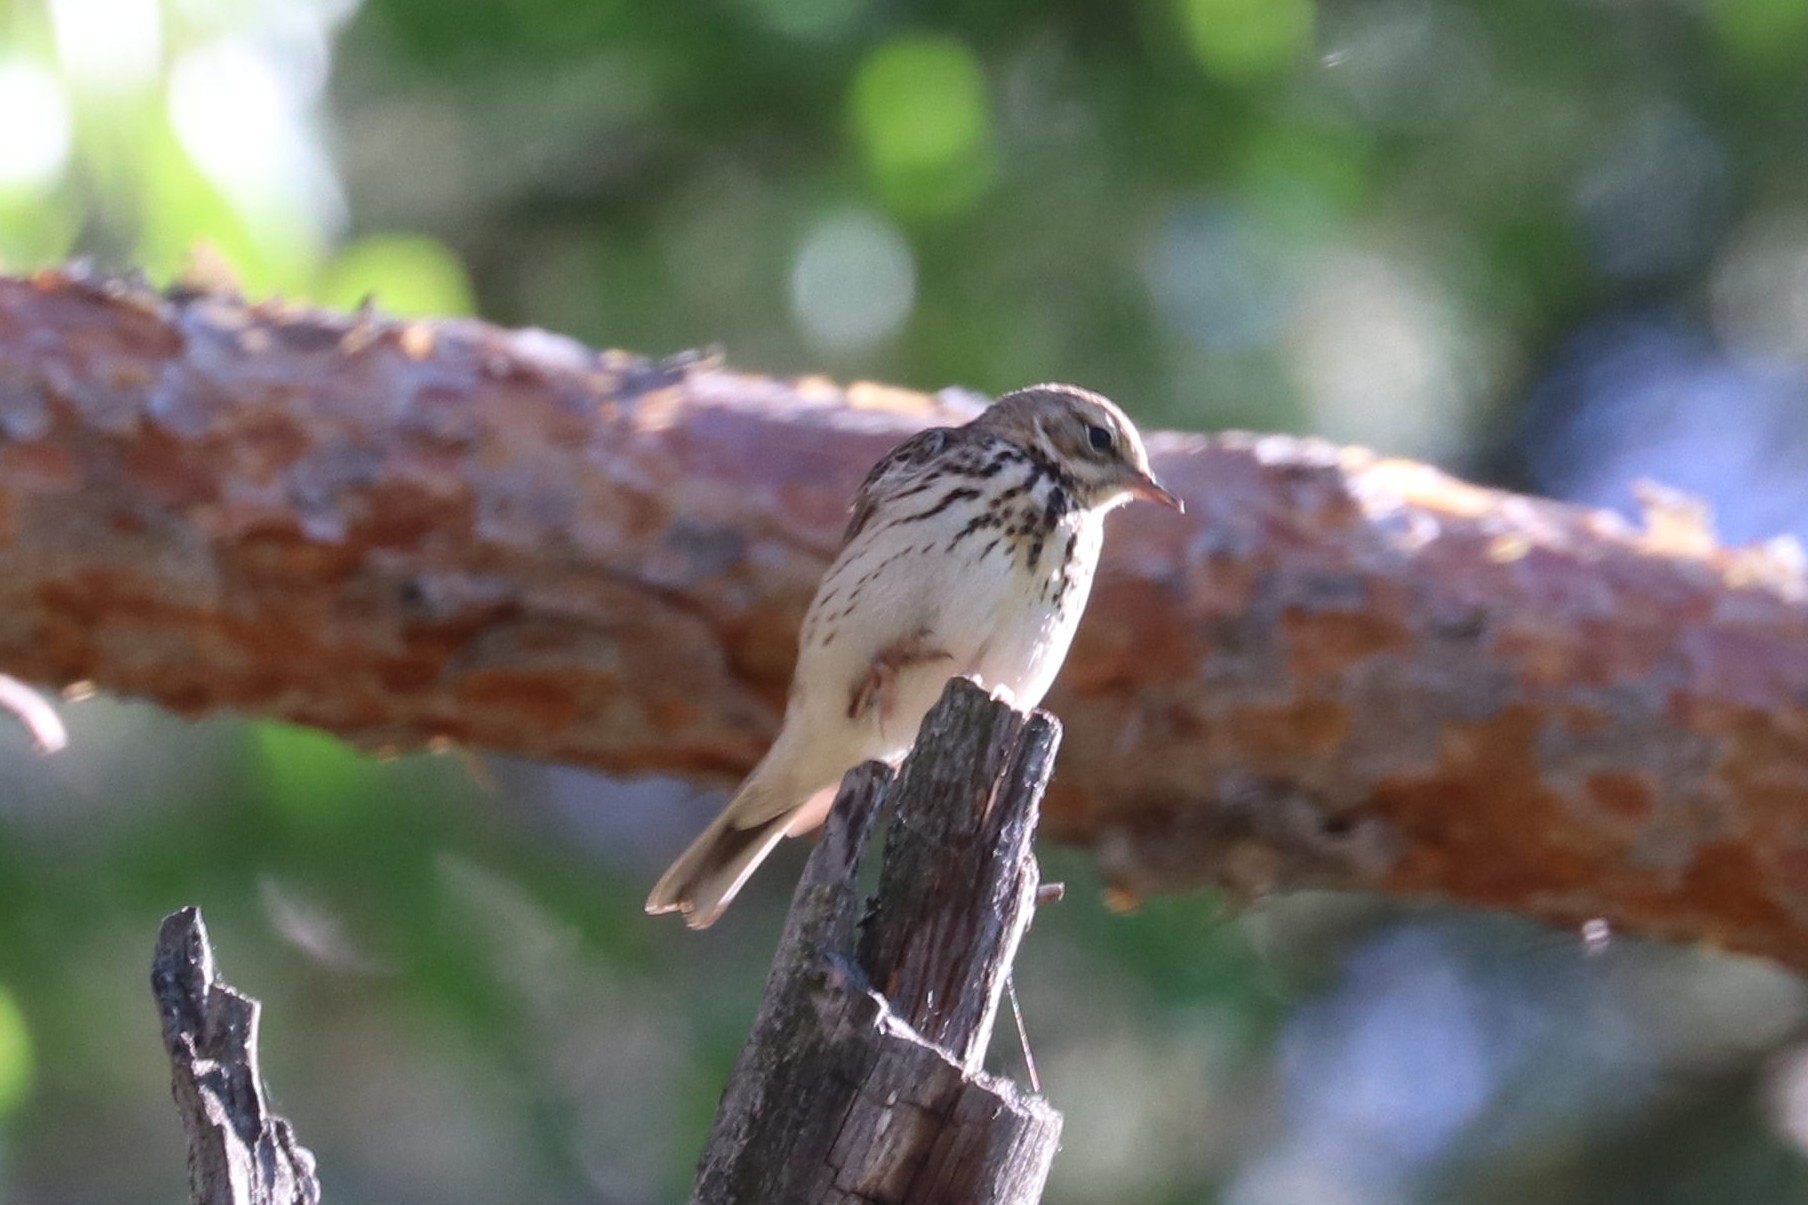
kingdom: Animalia
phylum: Chordata
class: Aves
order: Passeriformes
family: Motacillidae
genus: Anthus
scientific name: Anthus trivialis
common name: Tree pipit
